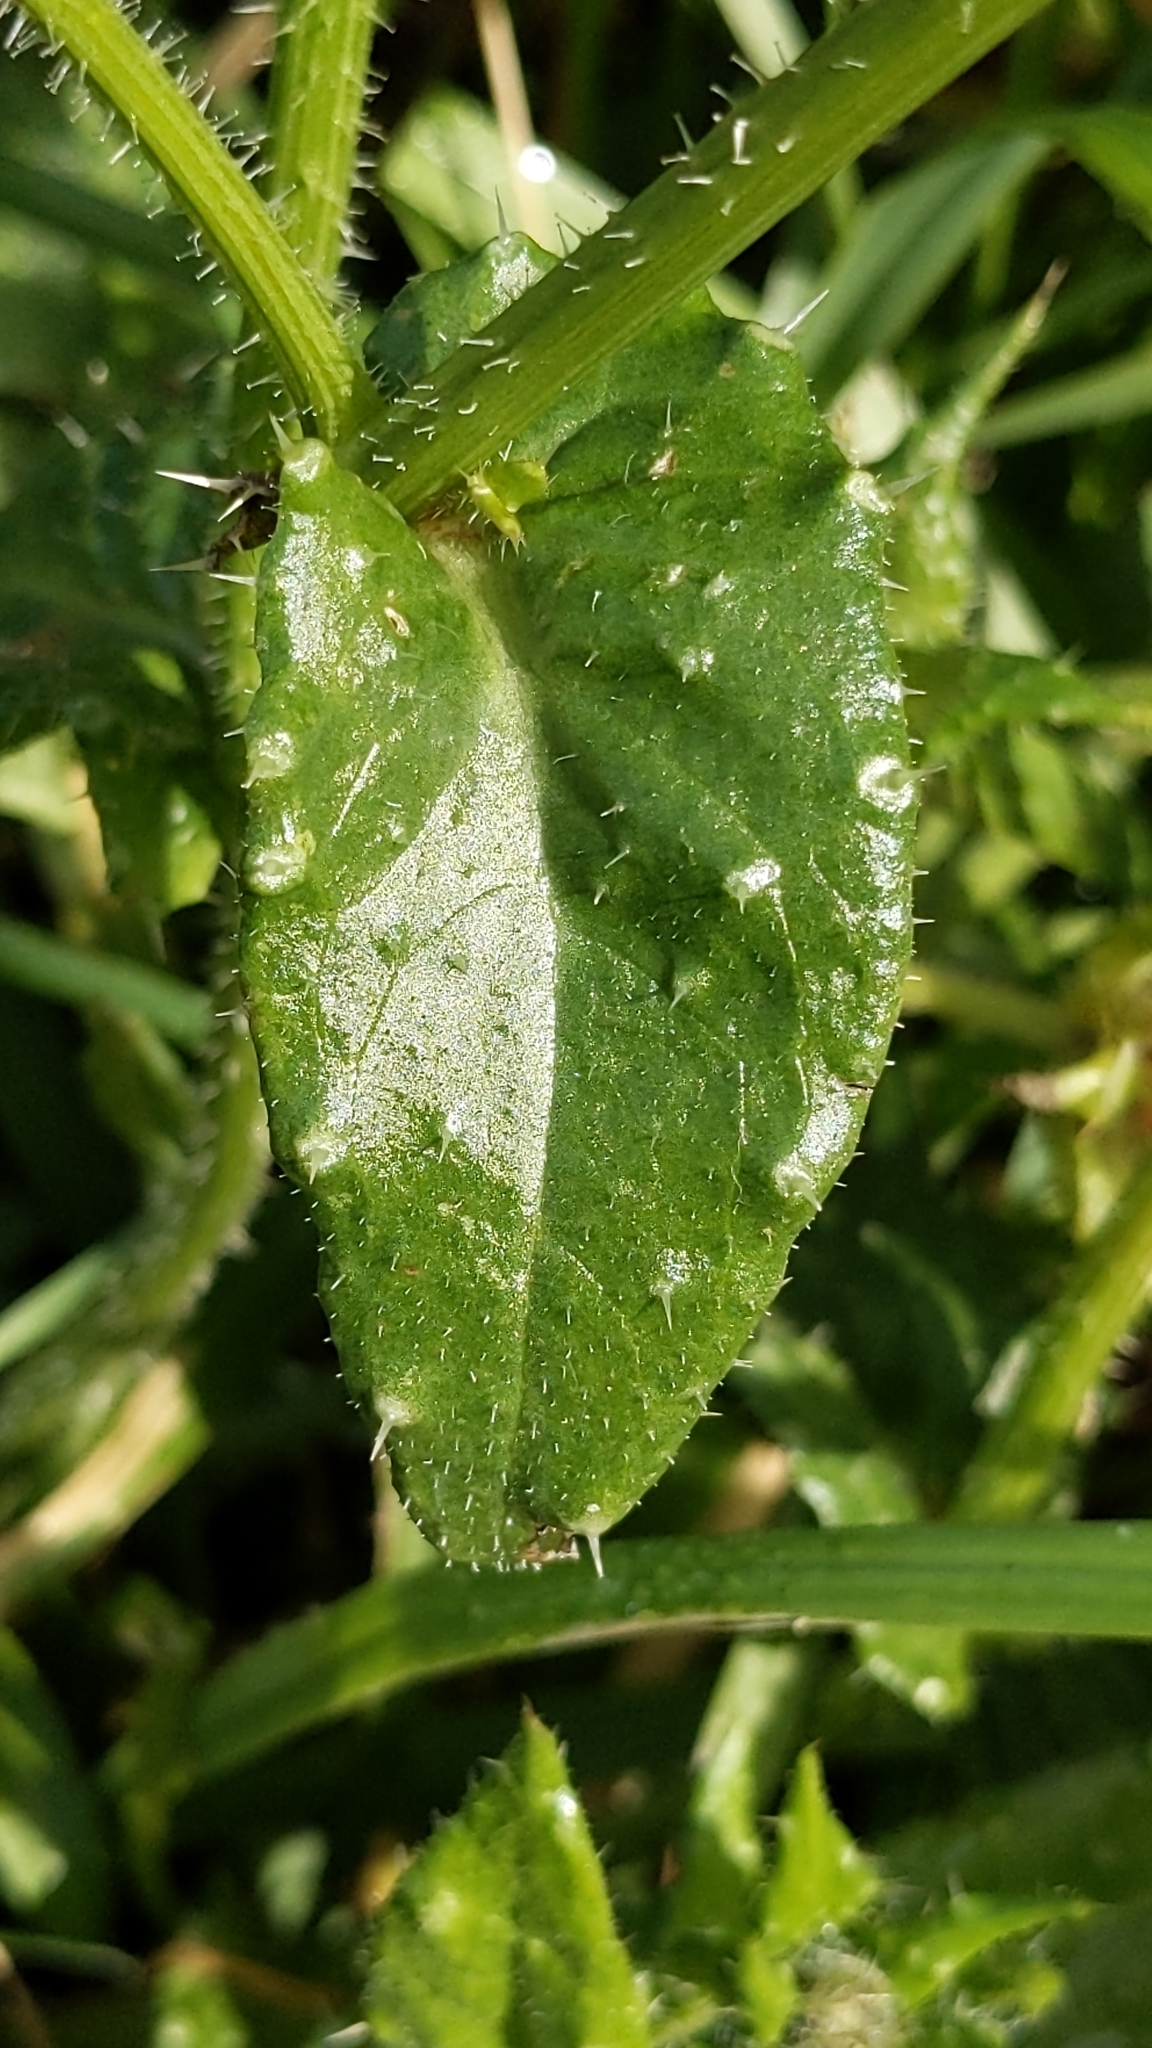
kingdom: Plantae
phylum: Tracheophyta
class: Magnoliopsida
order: Asterales
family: Asteraceae
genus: Helminthotheca
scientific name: Helminthotheca echioides
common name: Ox-tongue
